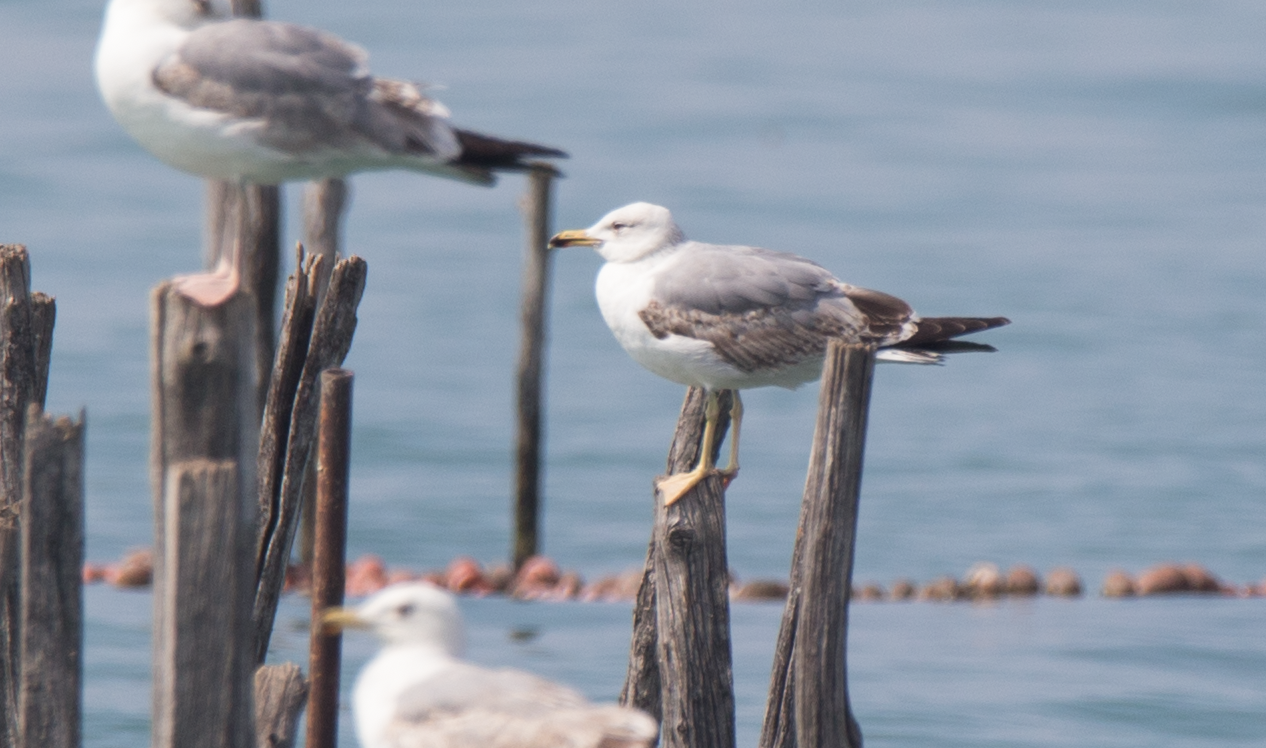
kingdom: Animalia
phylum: Chordata
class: Aves
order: Charadriiformes
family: Laridae
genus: Larus
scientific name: Larus cachinnans
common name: Caspian gull
